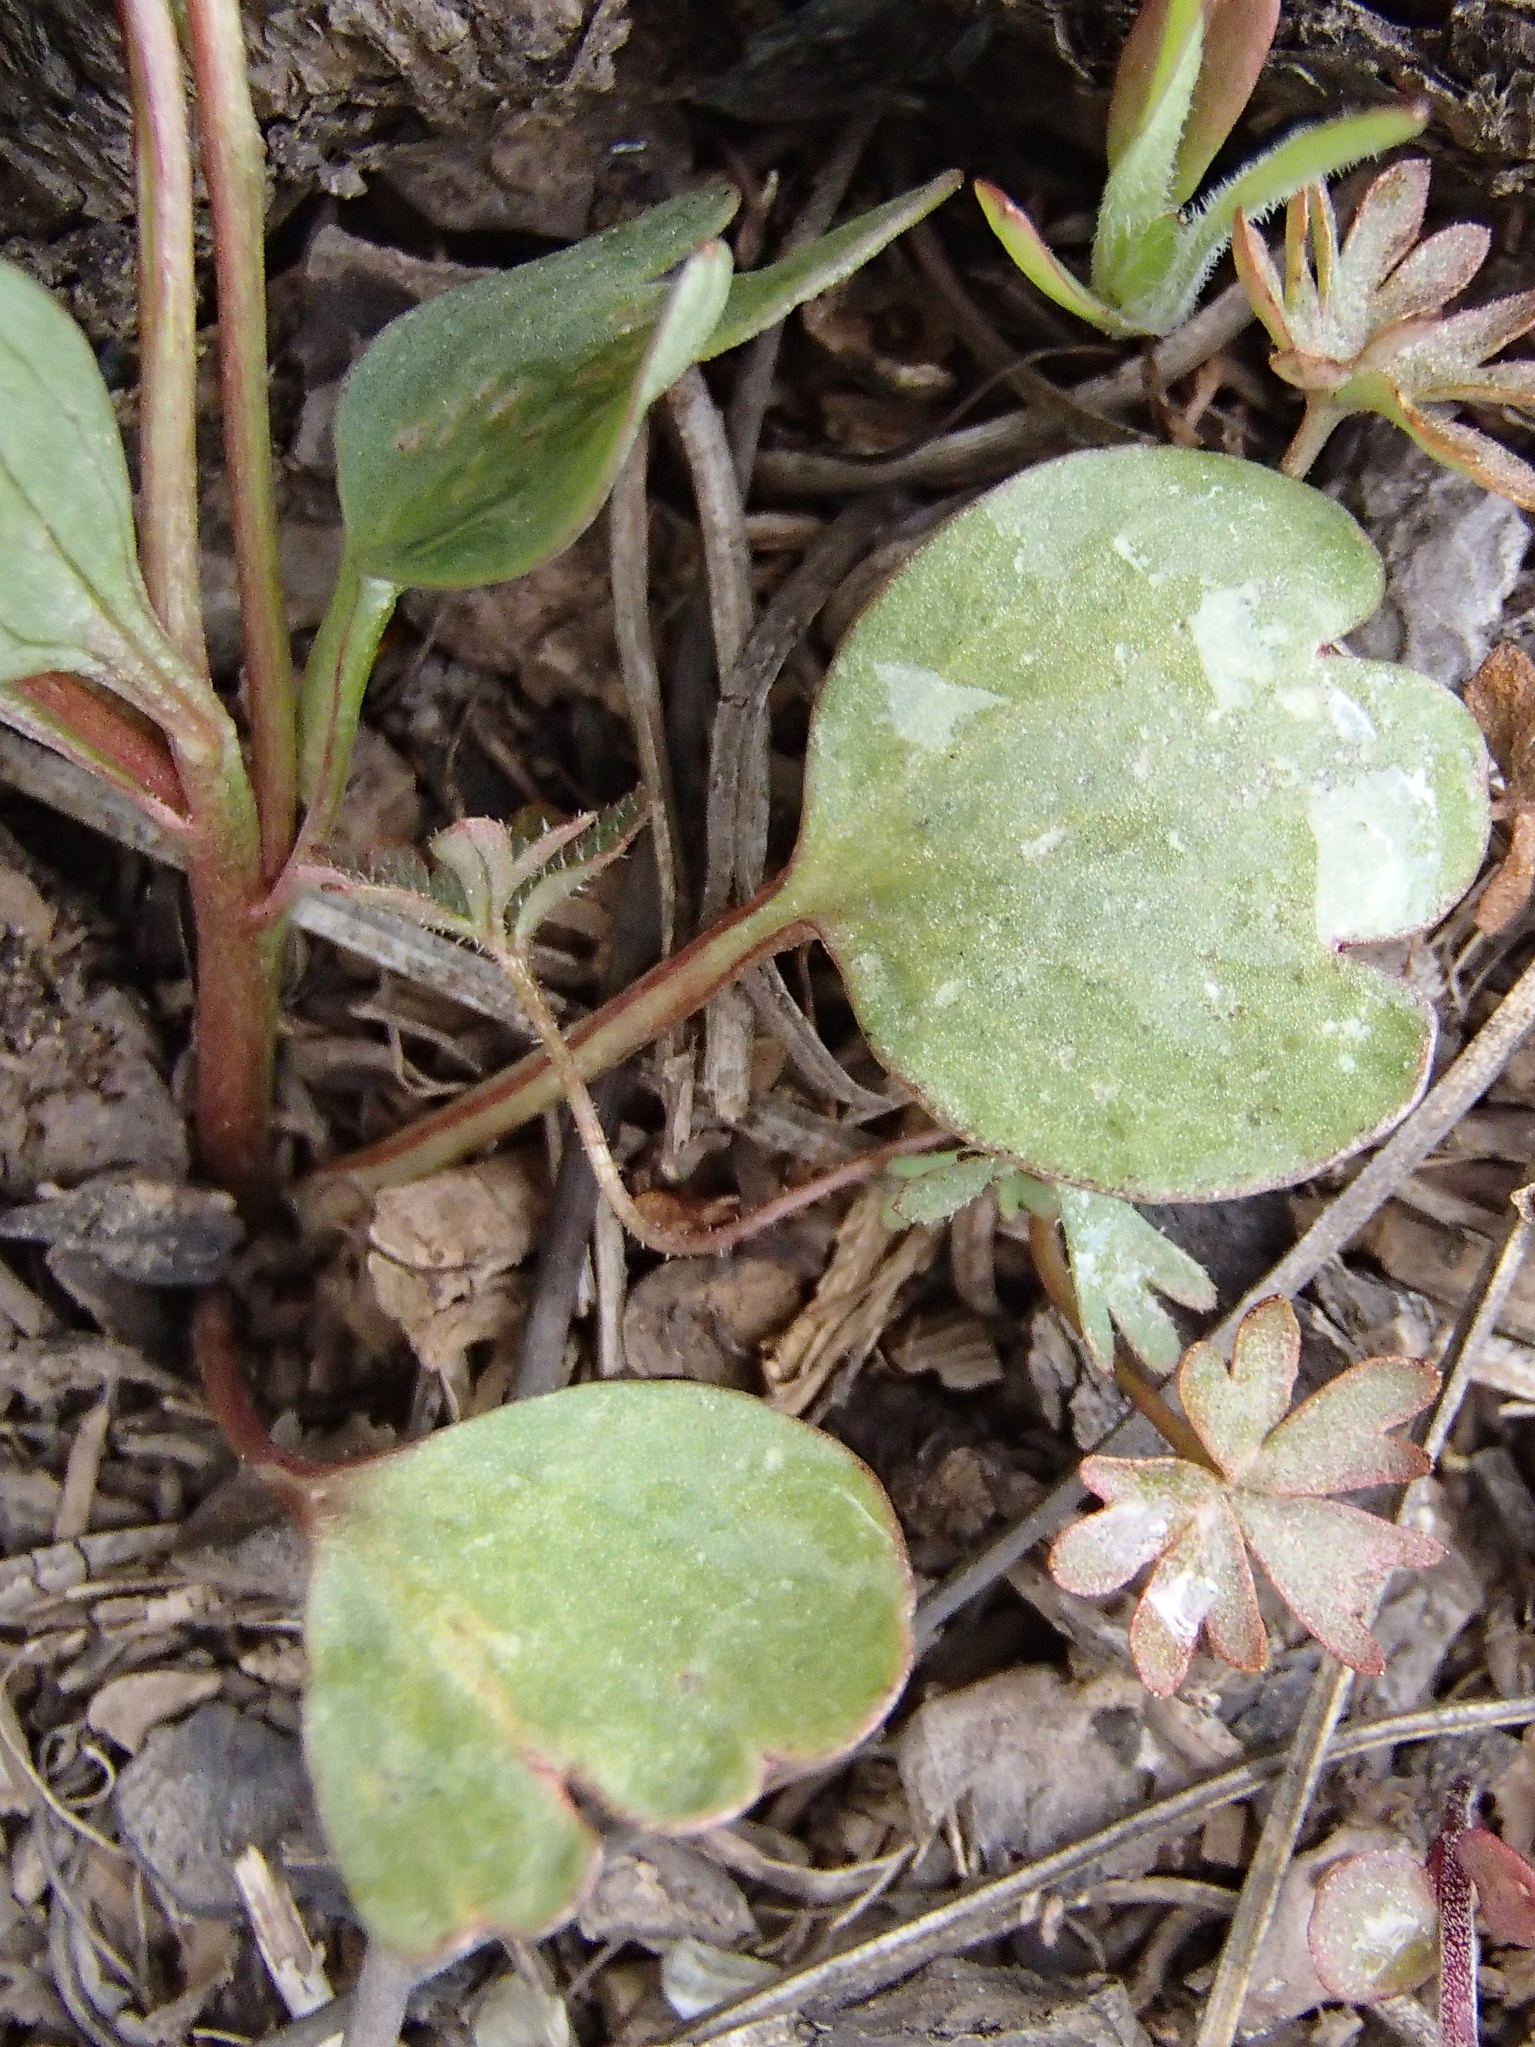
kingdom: Plantae
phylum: Tracheophyta
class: Magnoliopsida
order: Ranunculales
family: Ranunculaceae
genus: Ranunculus
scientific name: Ranunculus glaberrimus
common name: Sagebrush buttercup
